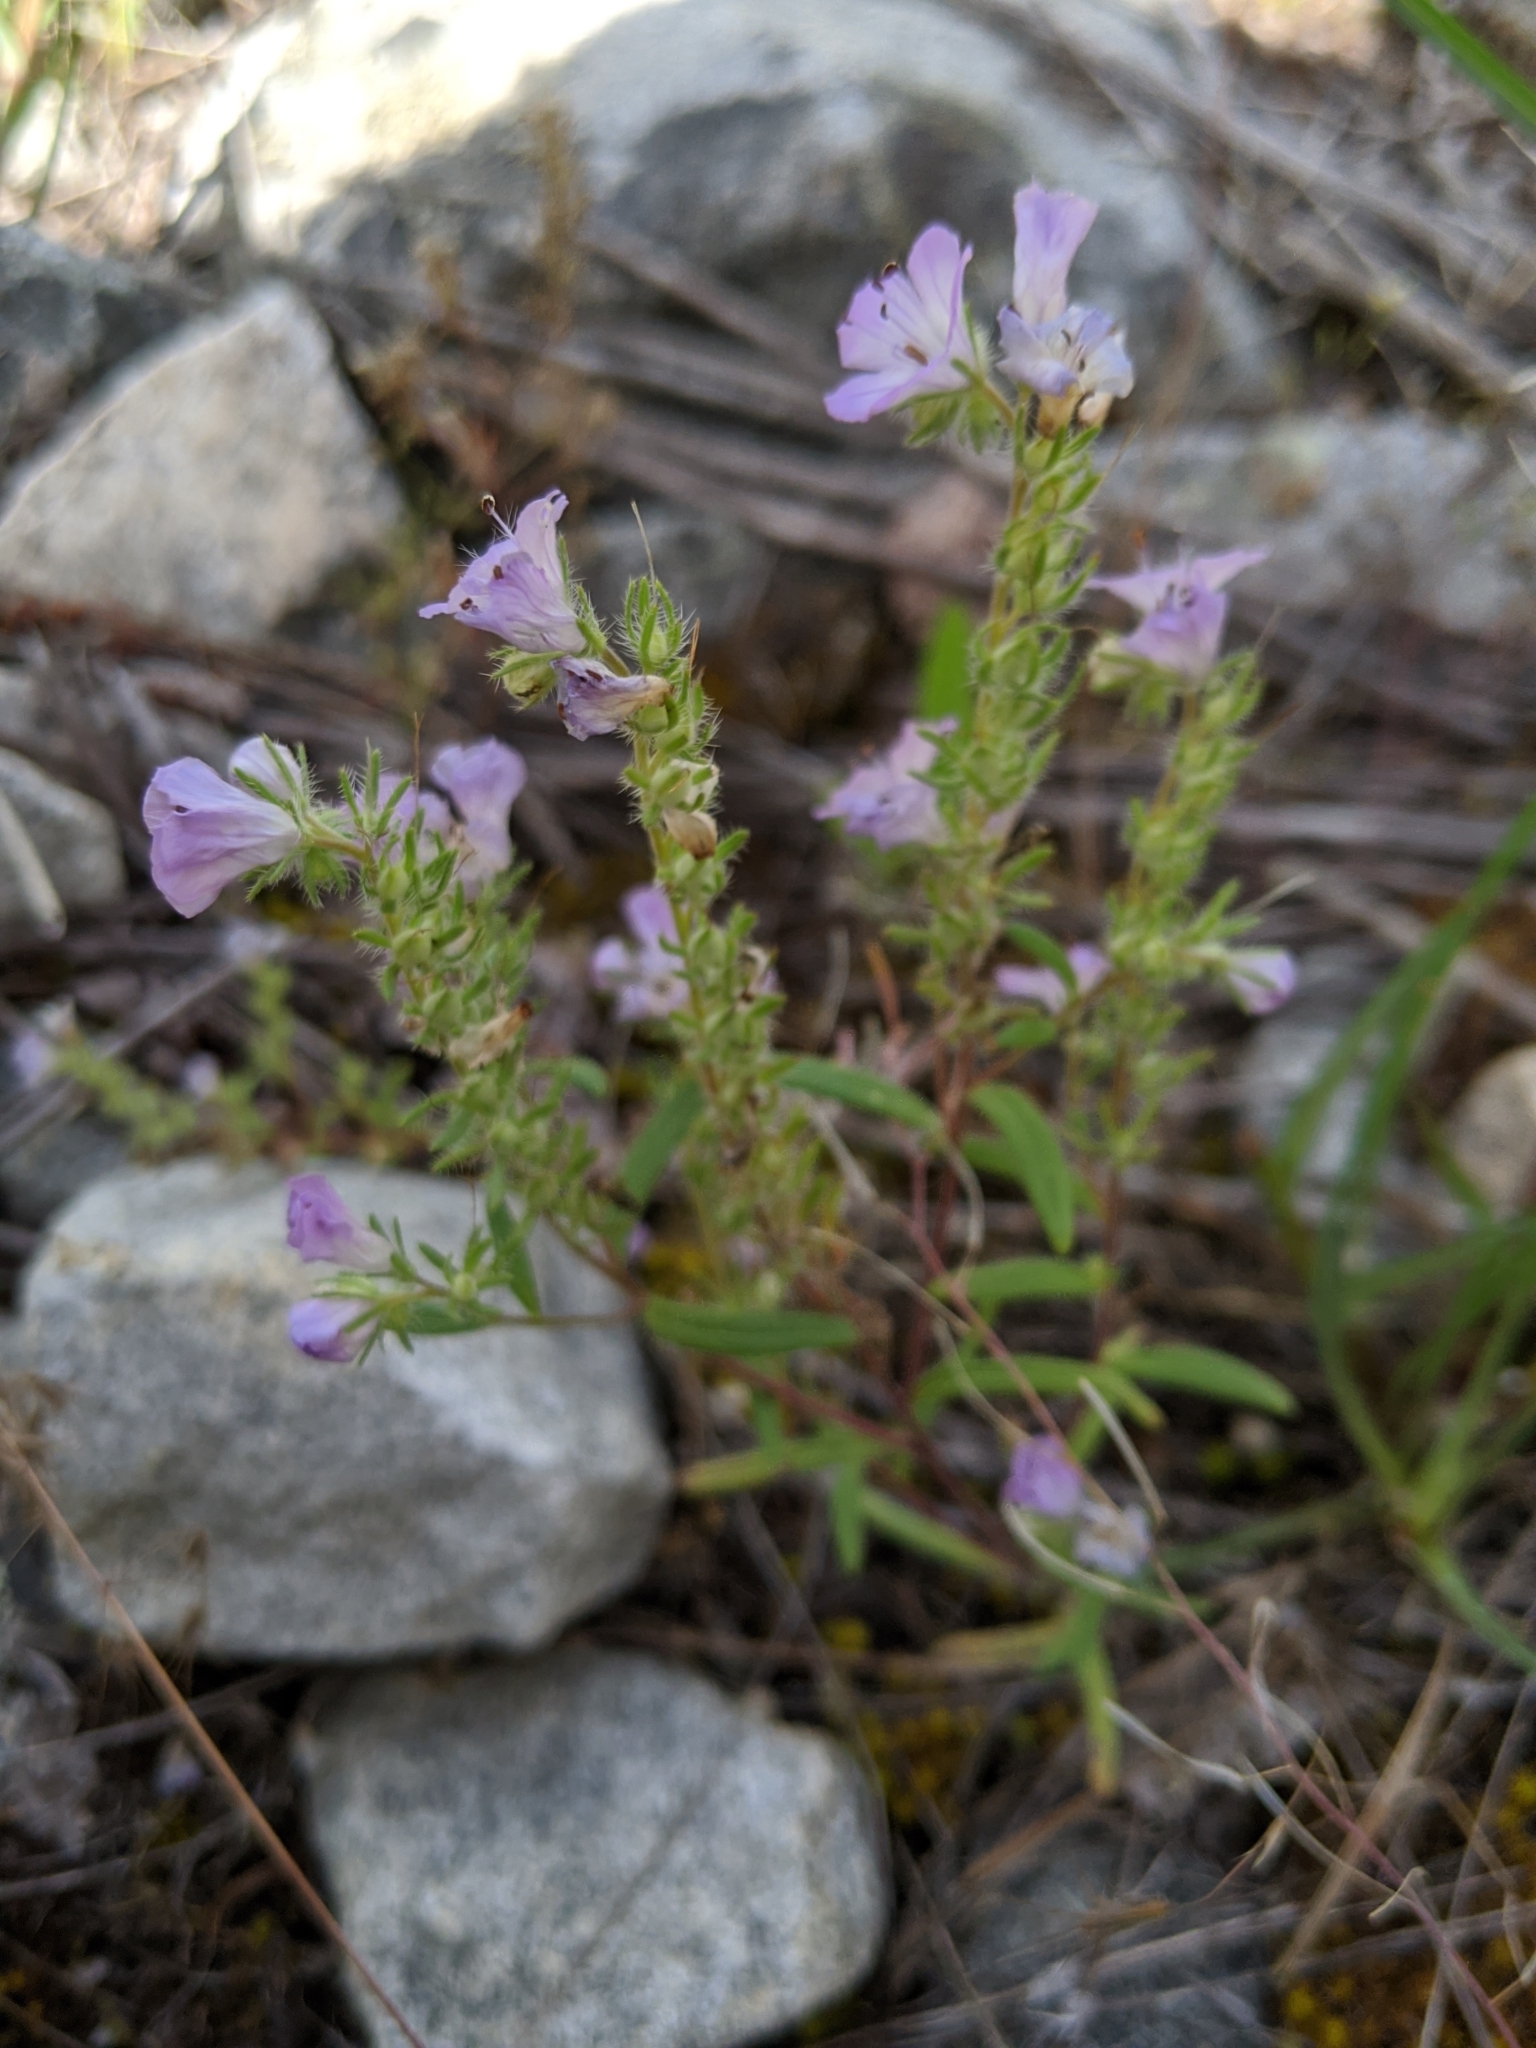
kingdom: Plantae
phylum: Tracheophyta
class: Magnoliopsida
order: Boraginales
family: Hydrophyllaceae
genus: Phacelia
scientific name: Phacelia linearis
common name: Linear-leaved phacelia
